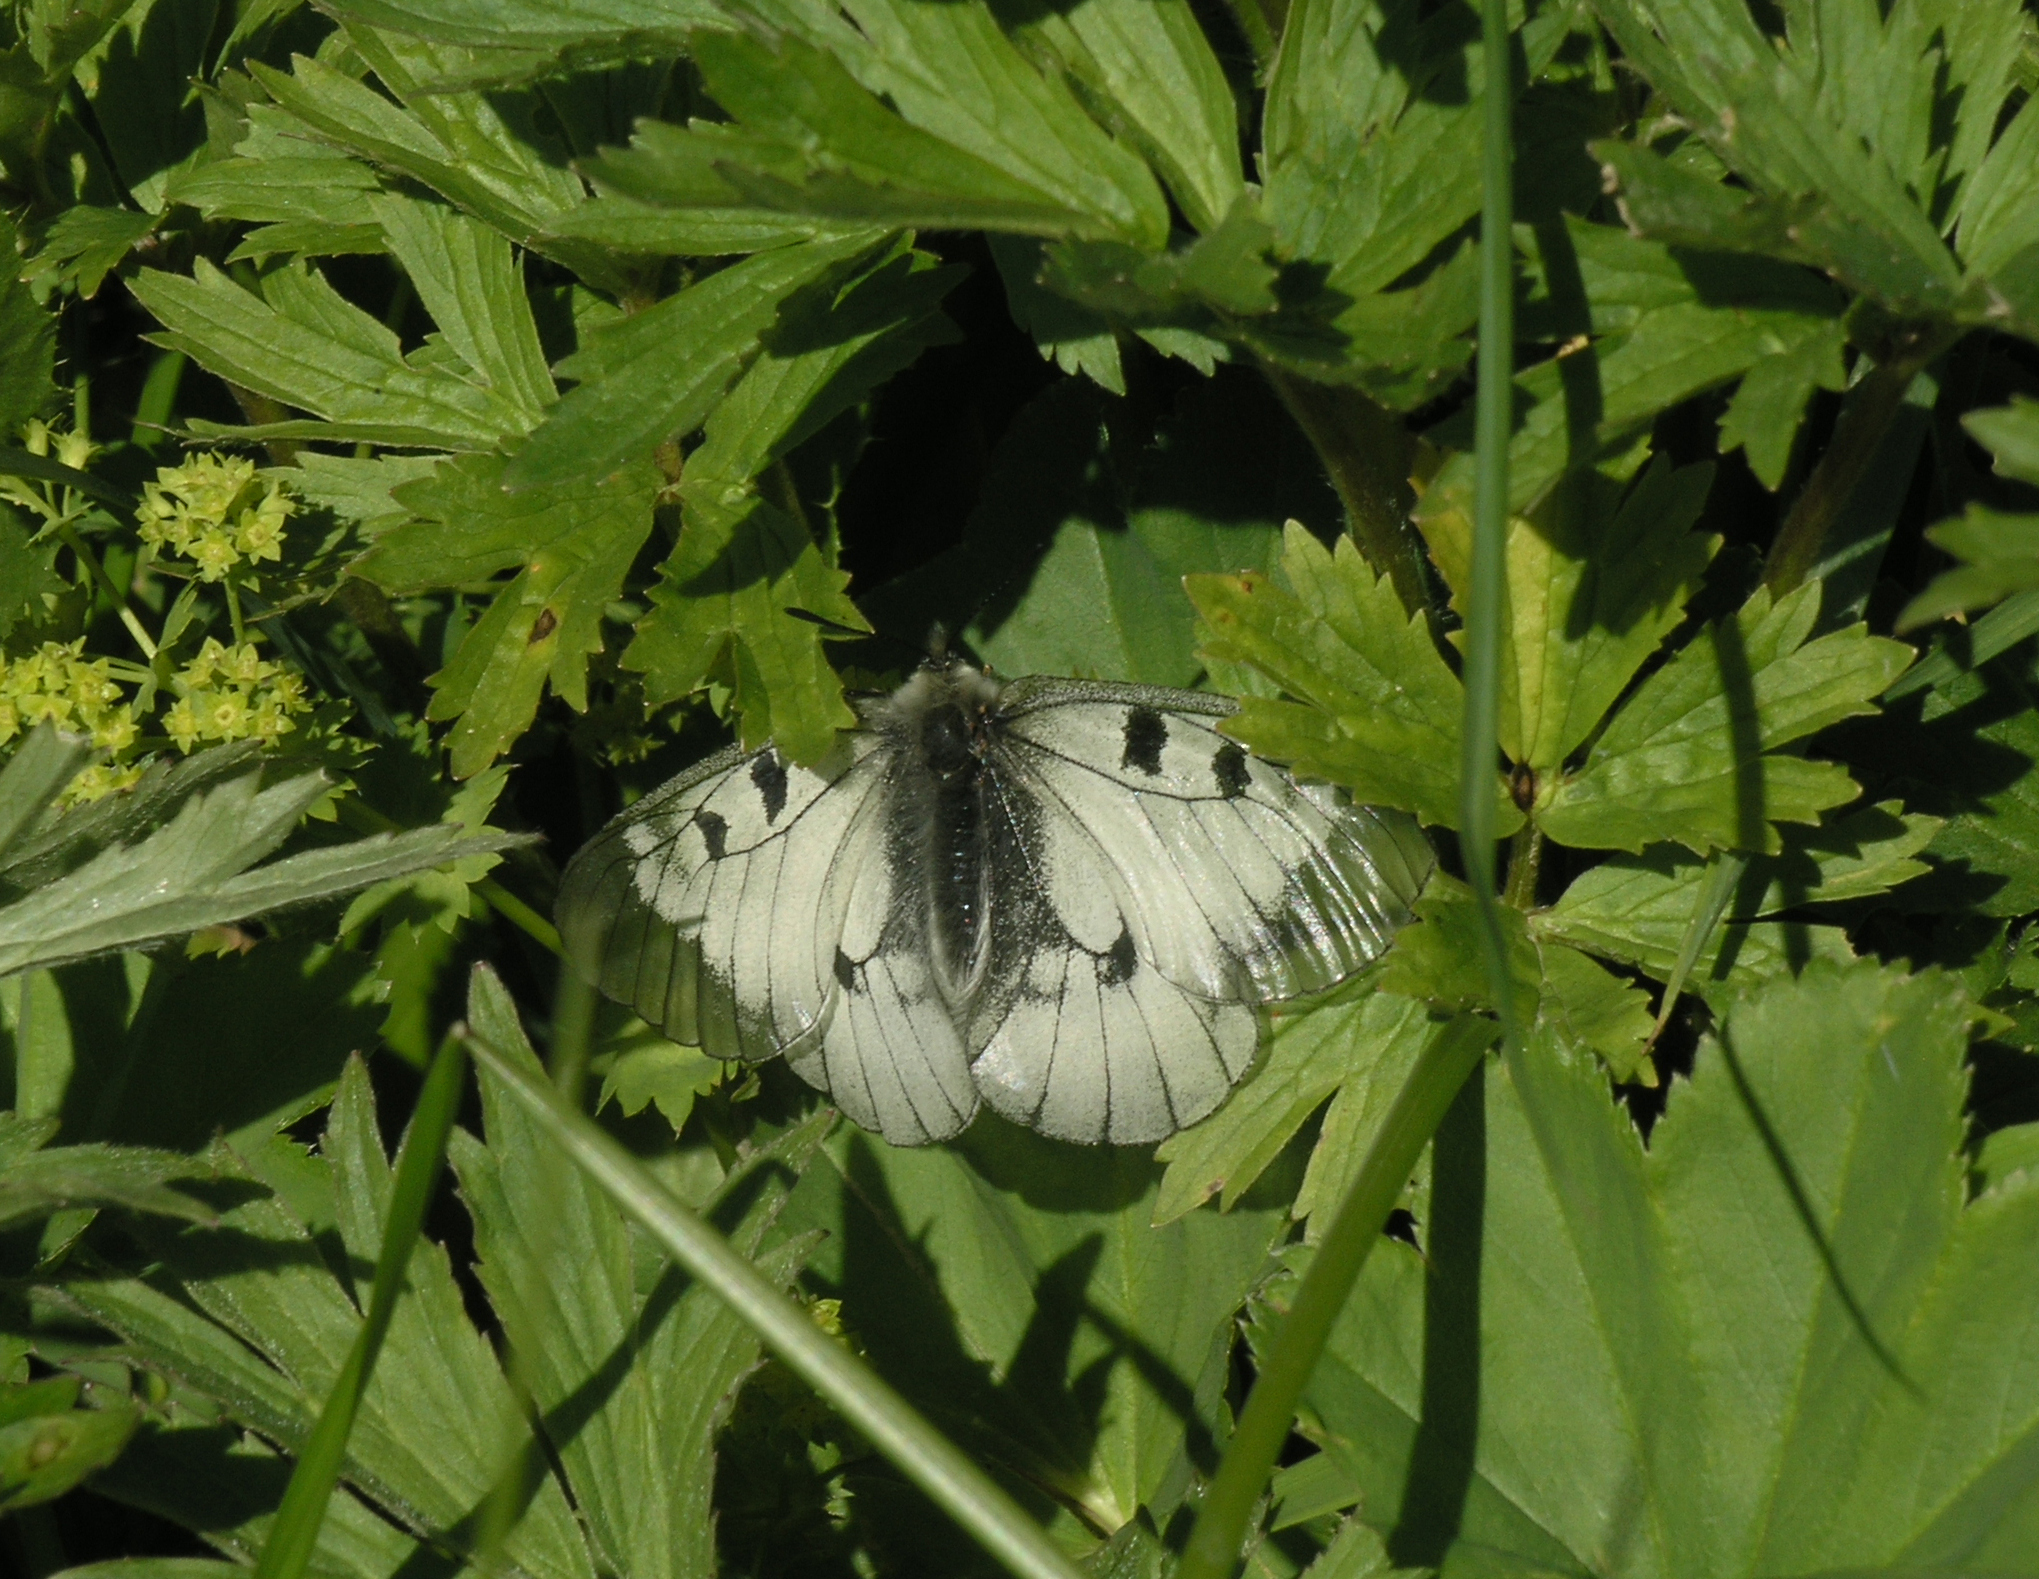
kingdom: Animalia
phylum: Arthropoda
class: Insecta
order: Lepidoptera
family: Papilionidae
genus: Parnassius
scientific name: Parnassius mnemosyne
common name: Clouded apollo
